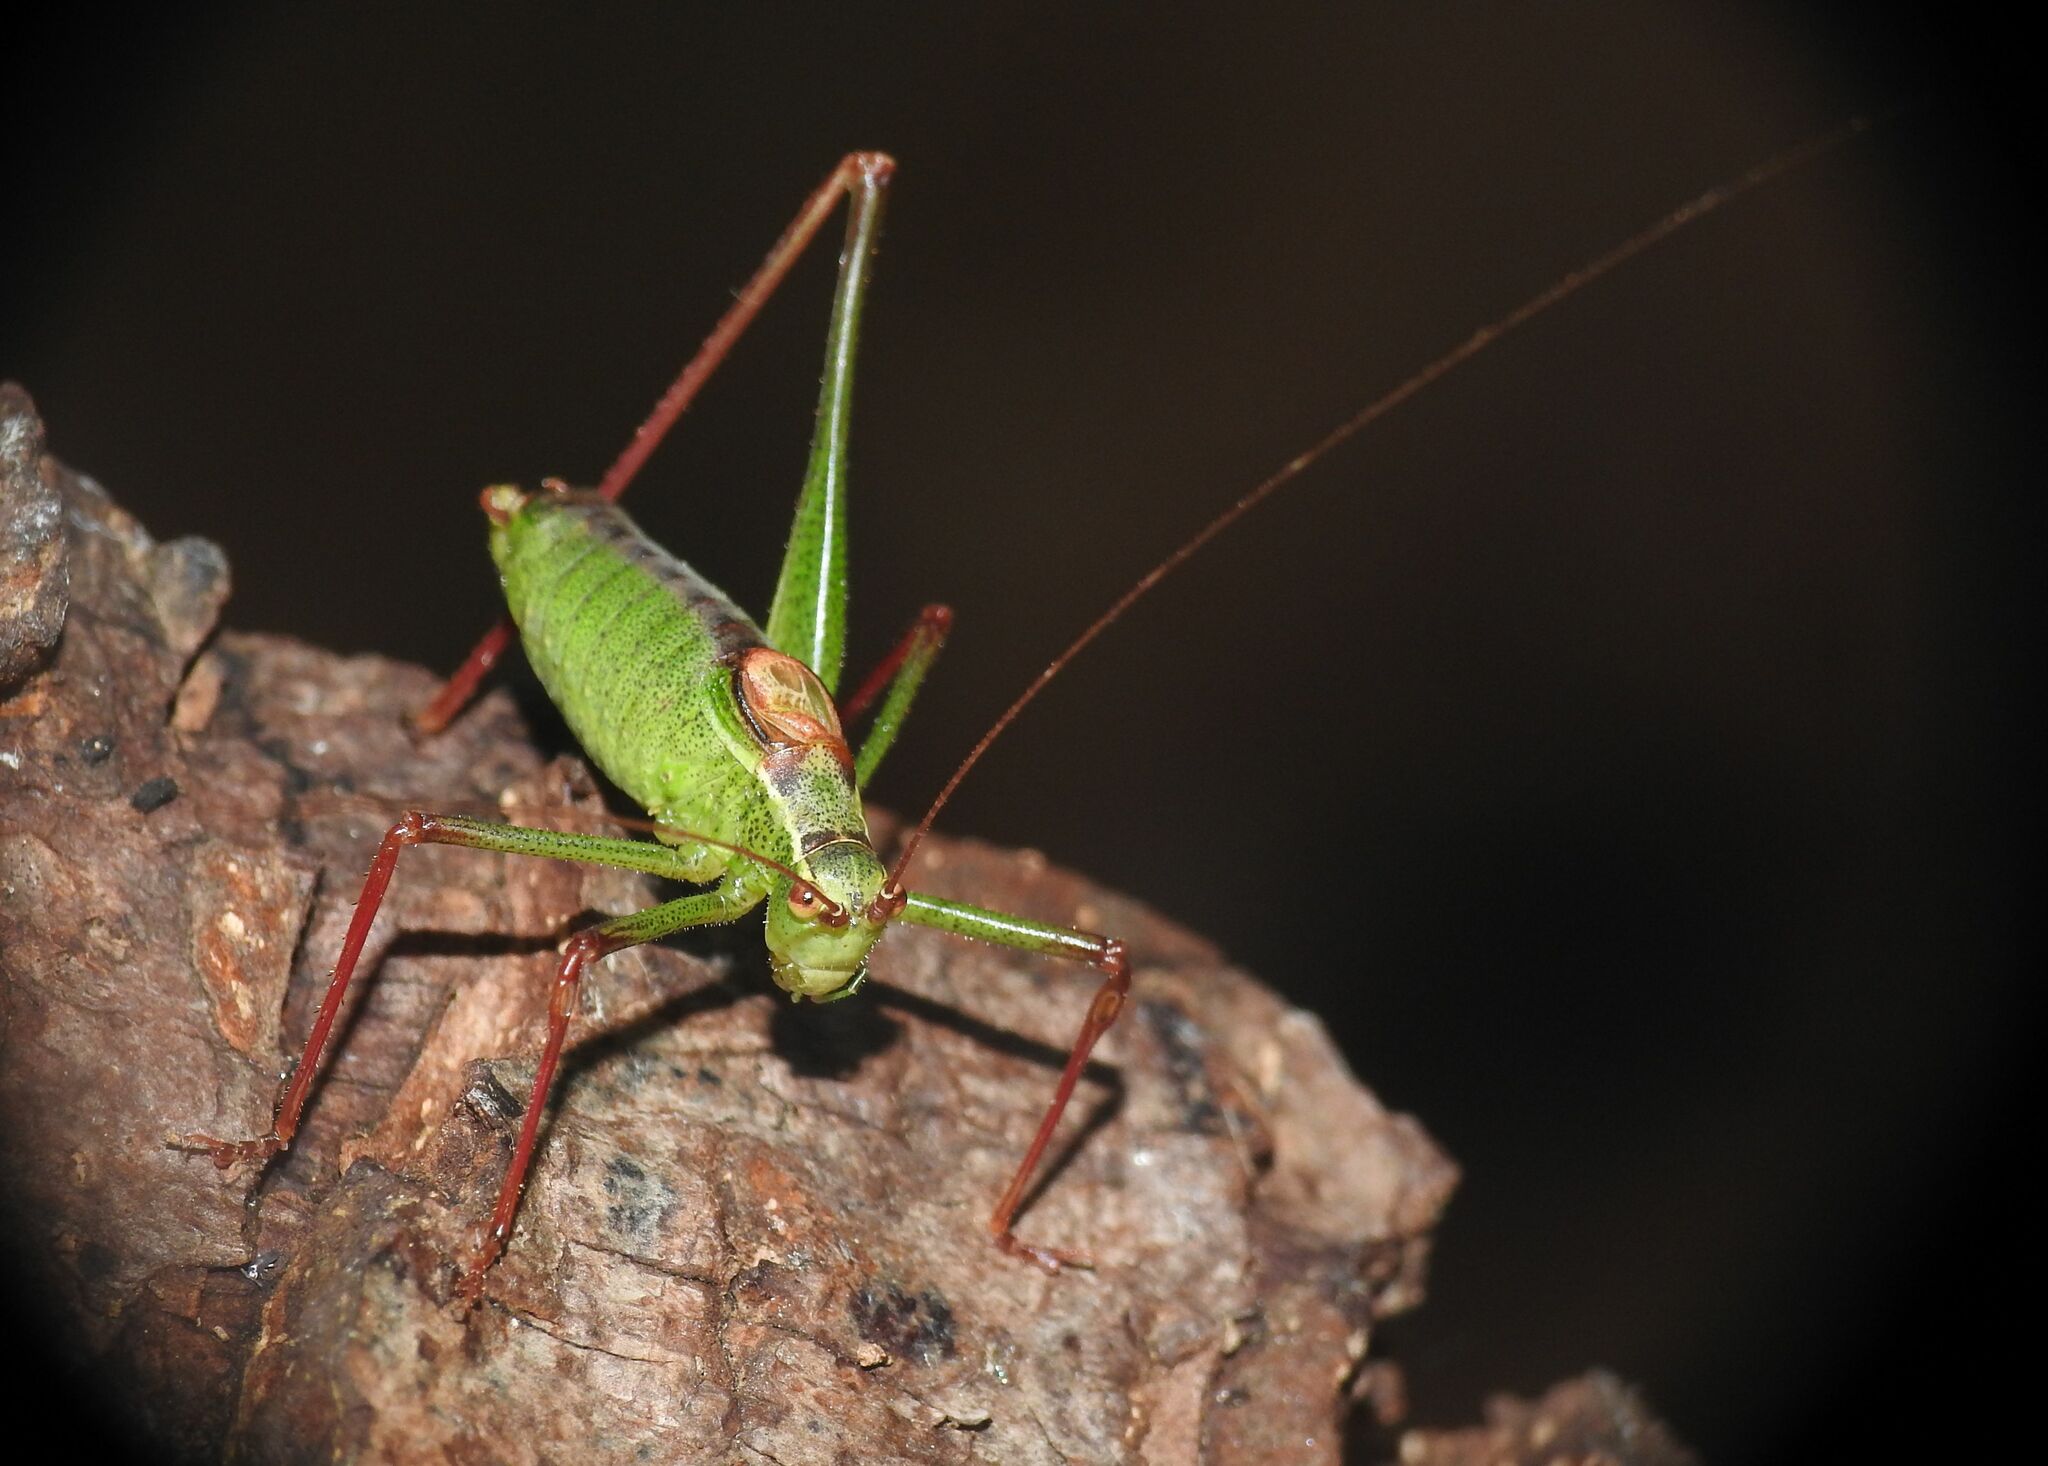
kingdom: Animalia
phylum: Arthropoda
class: Insecta
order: Orthoptera
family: Tettigoniidae
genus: Leptophyes
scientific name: Leptophyes punctatissima
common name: Speckled bush-cricket
